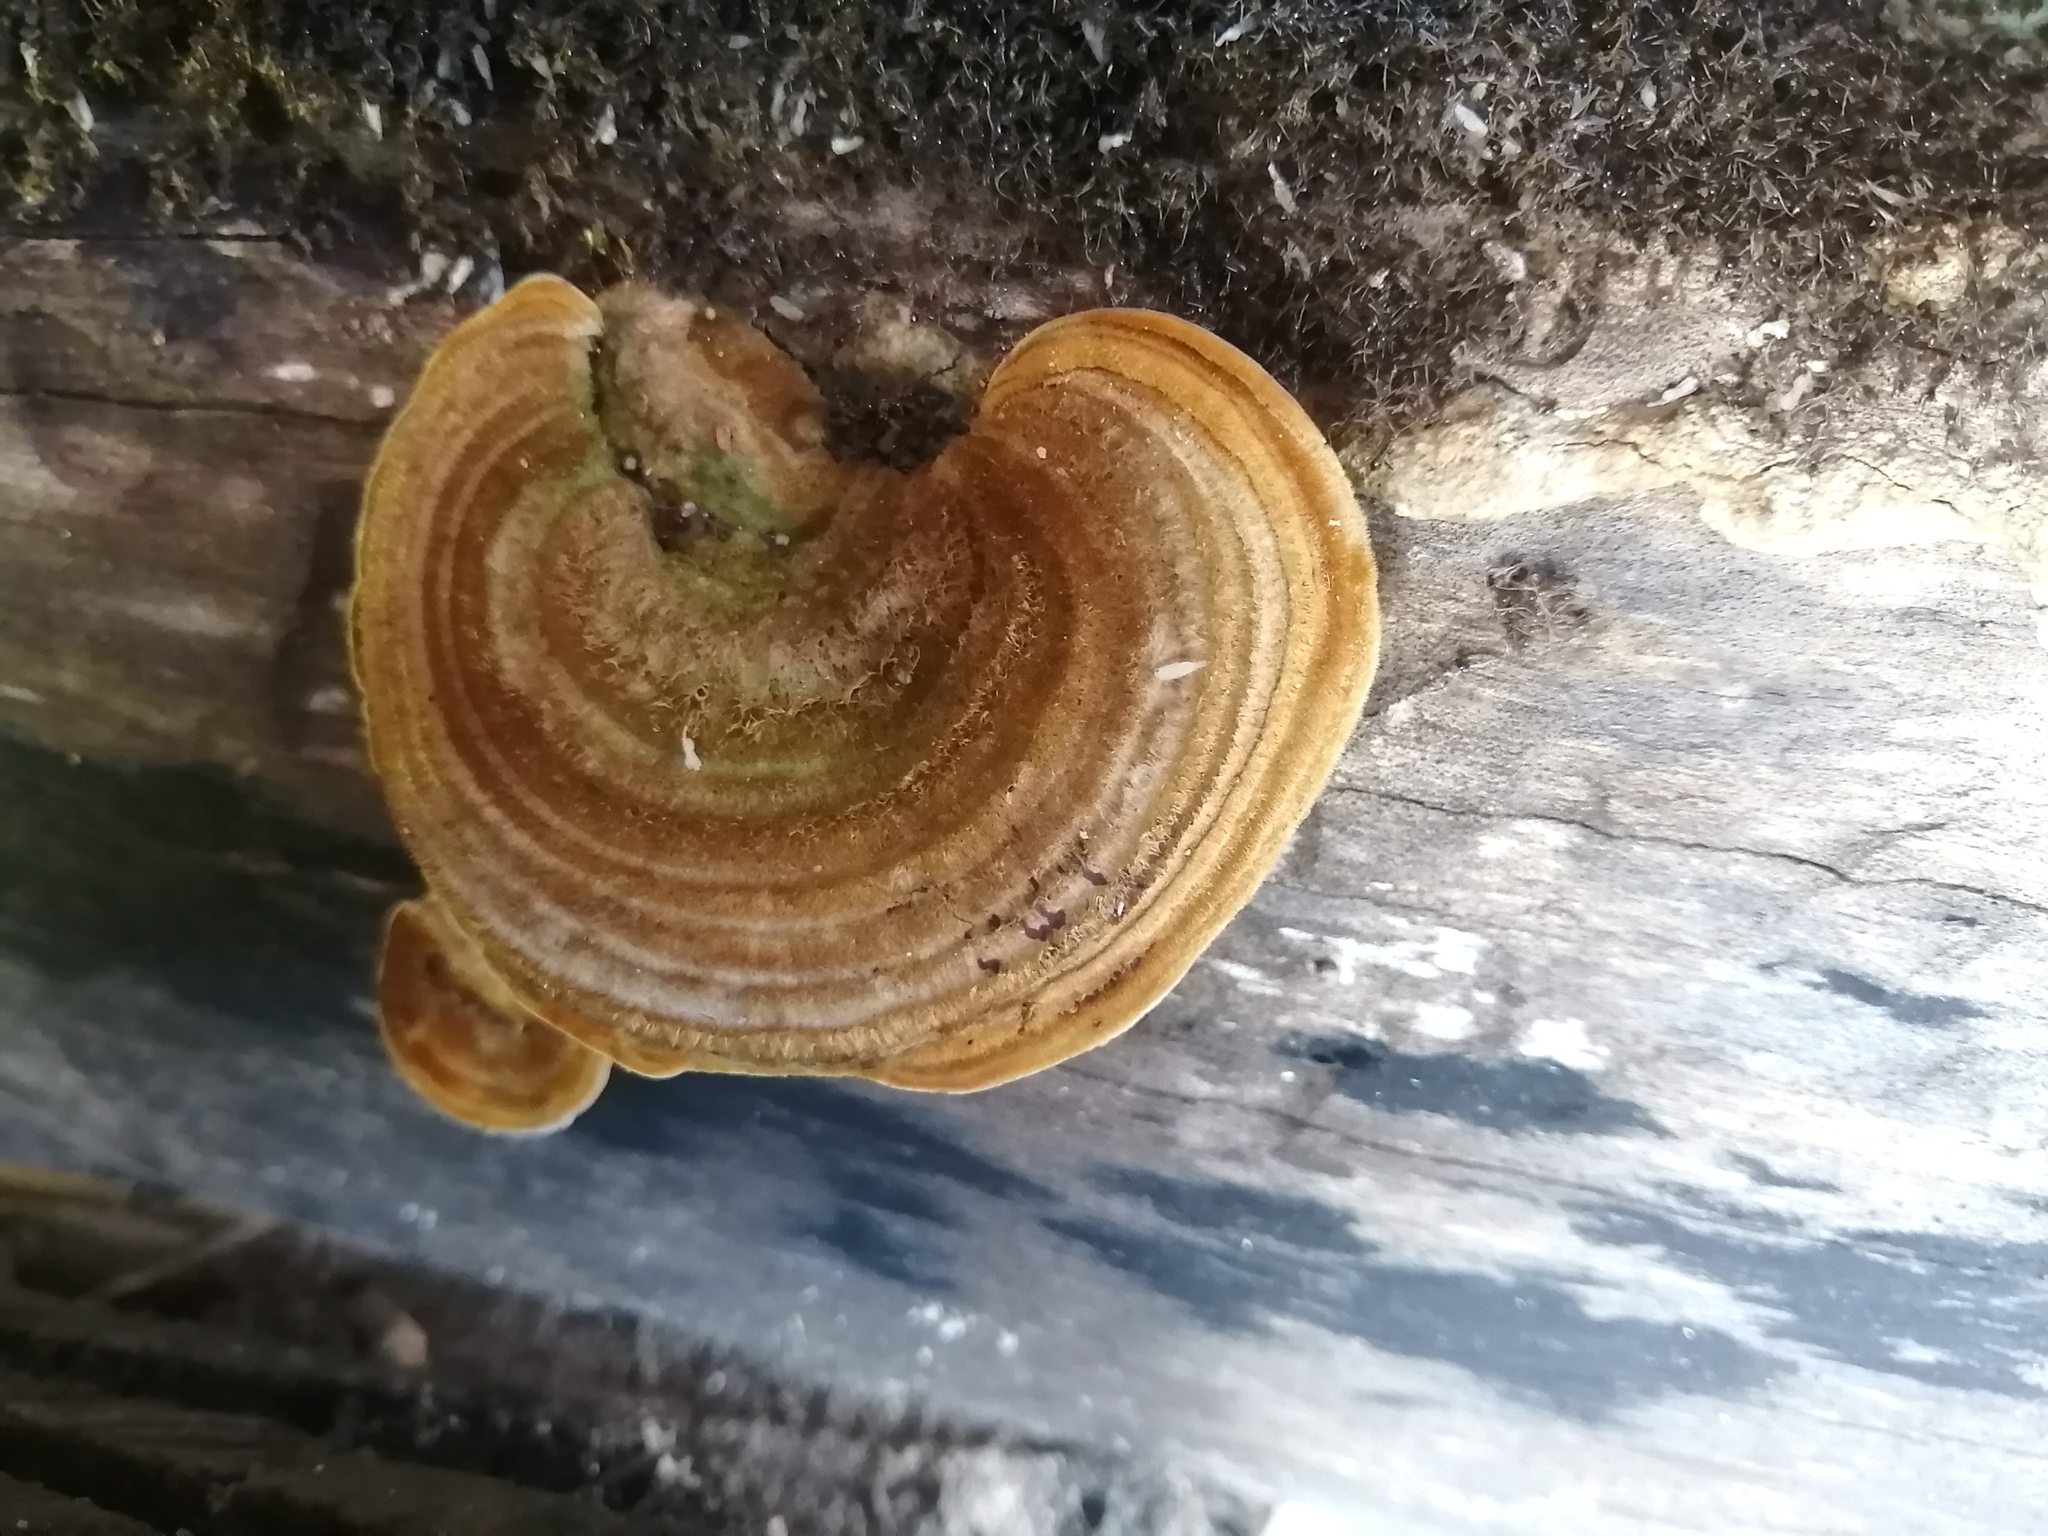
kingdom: Fungi
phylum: Basidiomycota
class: Agaricomycetes
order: Polyporales
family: Polyporaceae
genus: Daedaleopsis
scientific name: Daedaleopsis confragosa
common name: Blushing bracket
